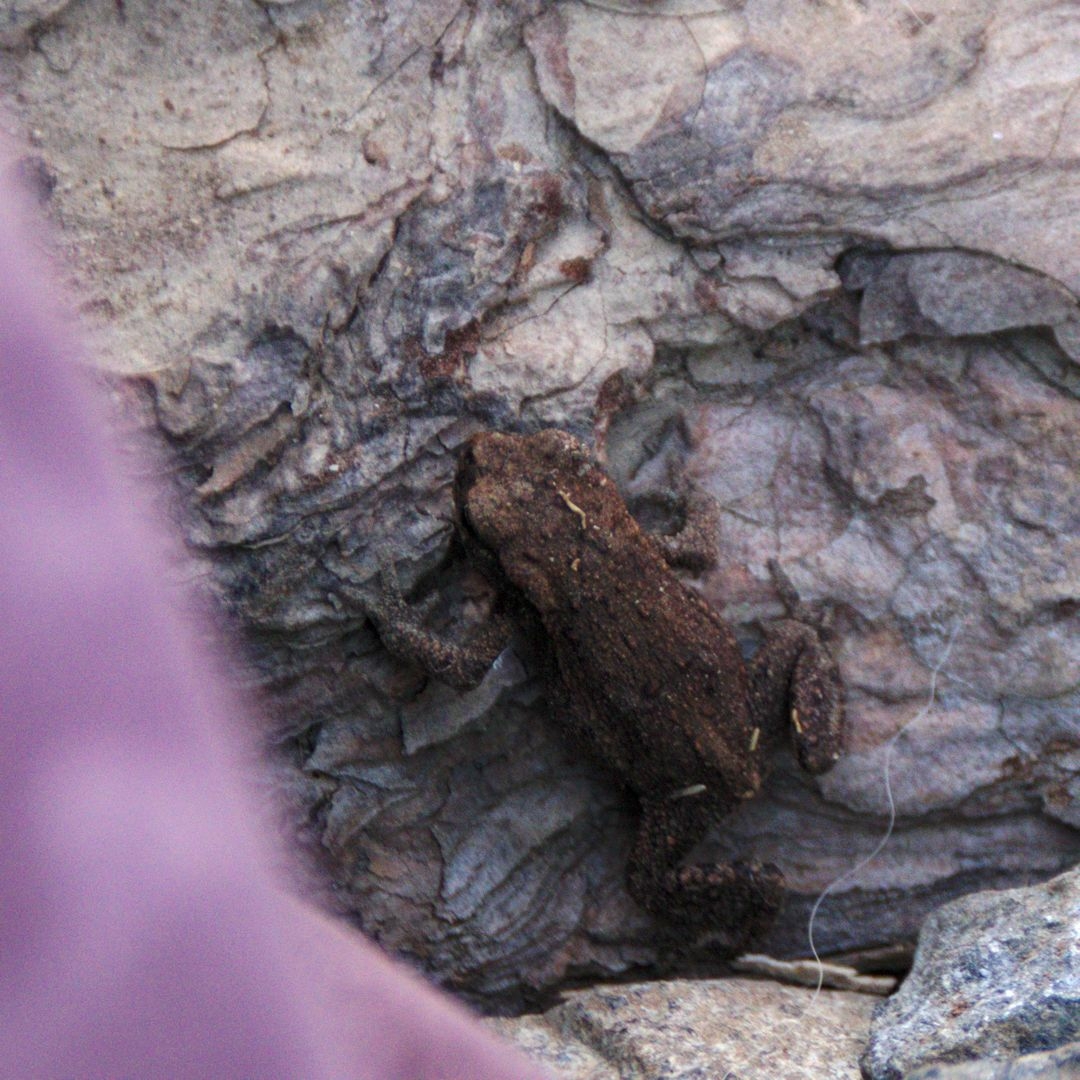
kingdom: Animalia
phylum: Chordata
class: Amphibia
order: Anura
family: Bufonidae
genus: Bufo
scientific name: Bufo bufo
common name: Common toad
